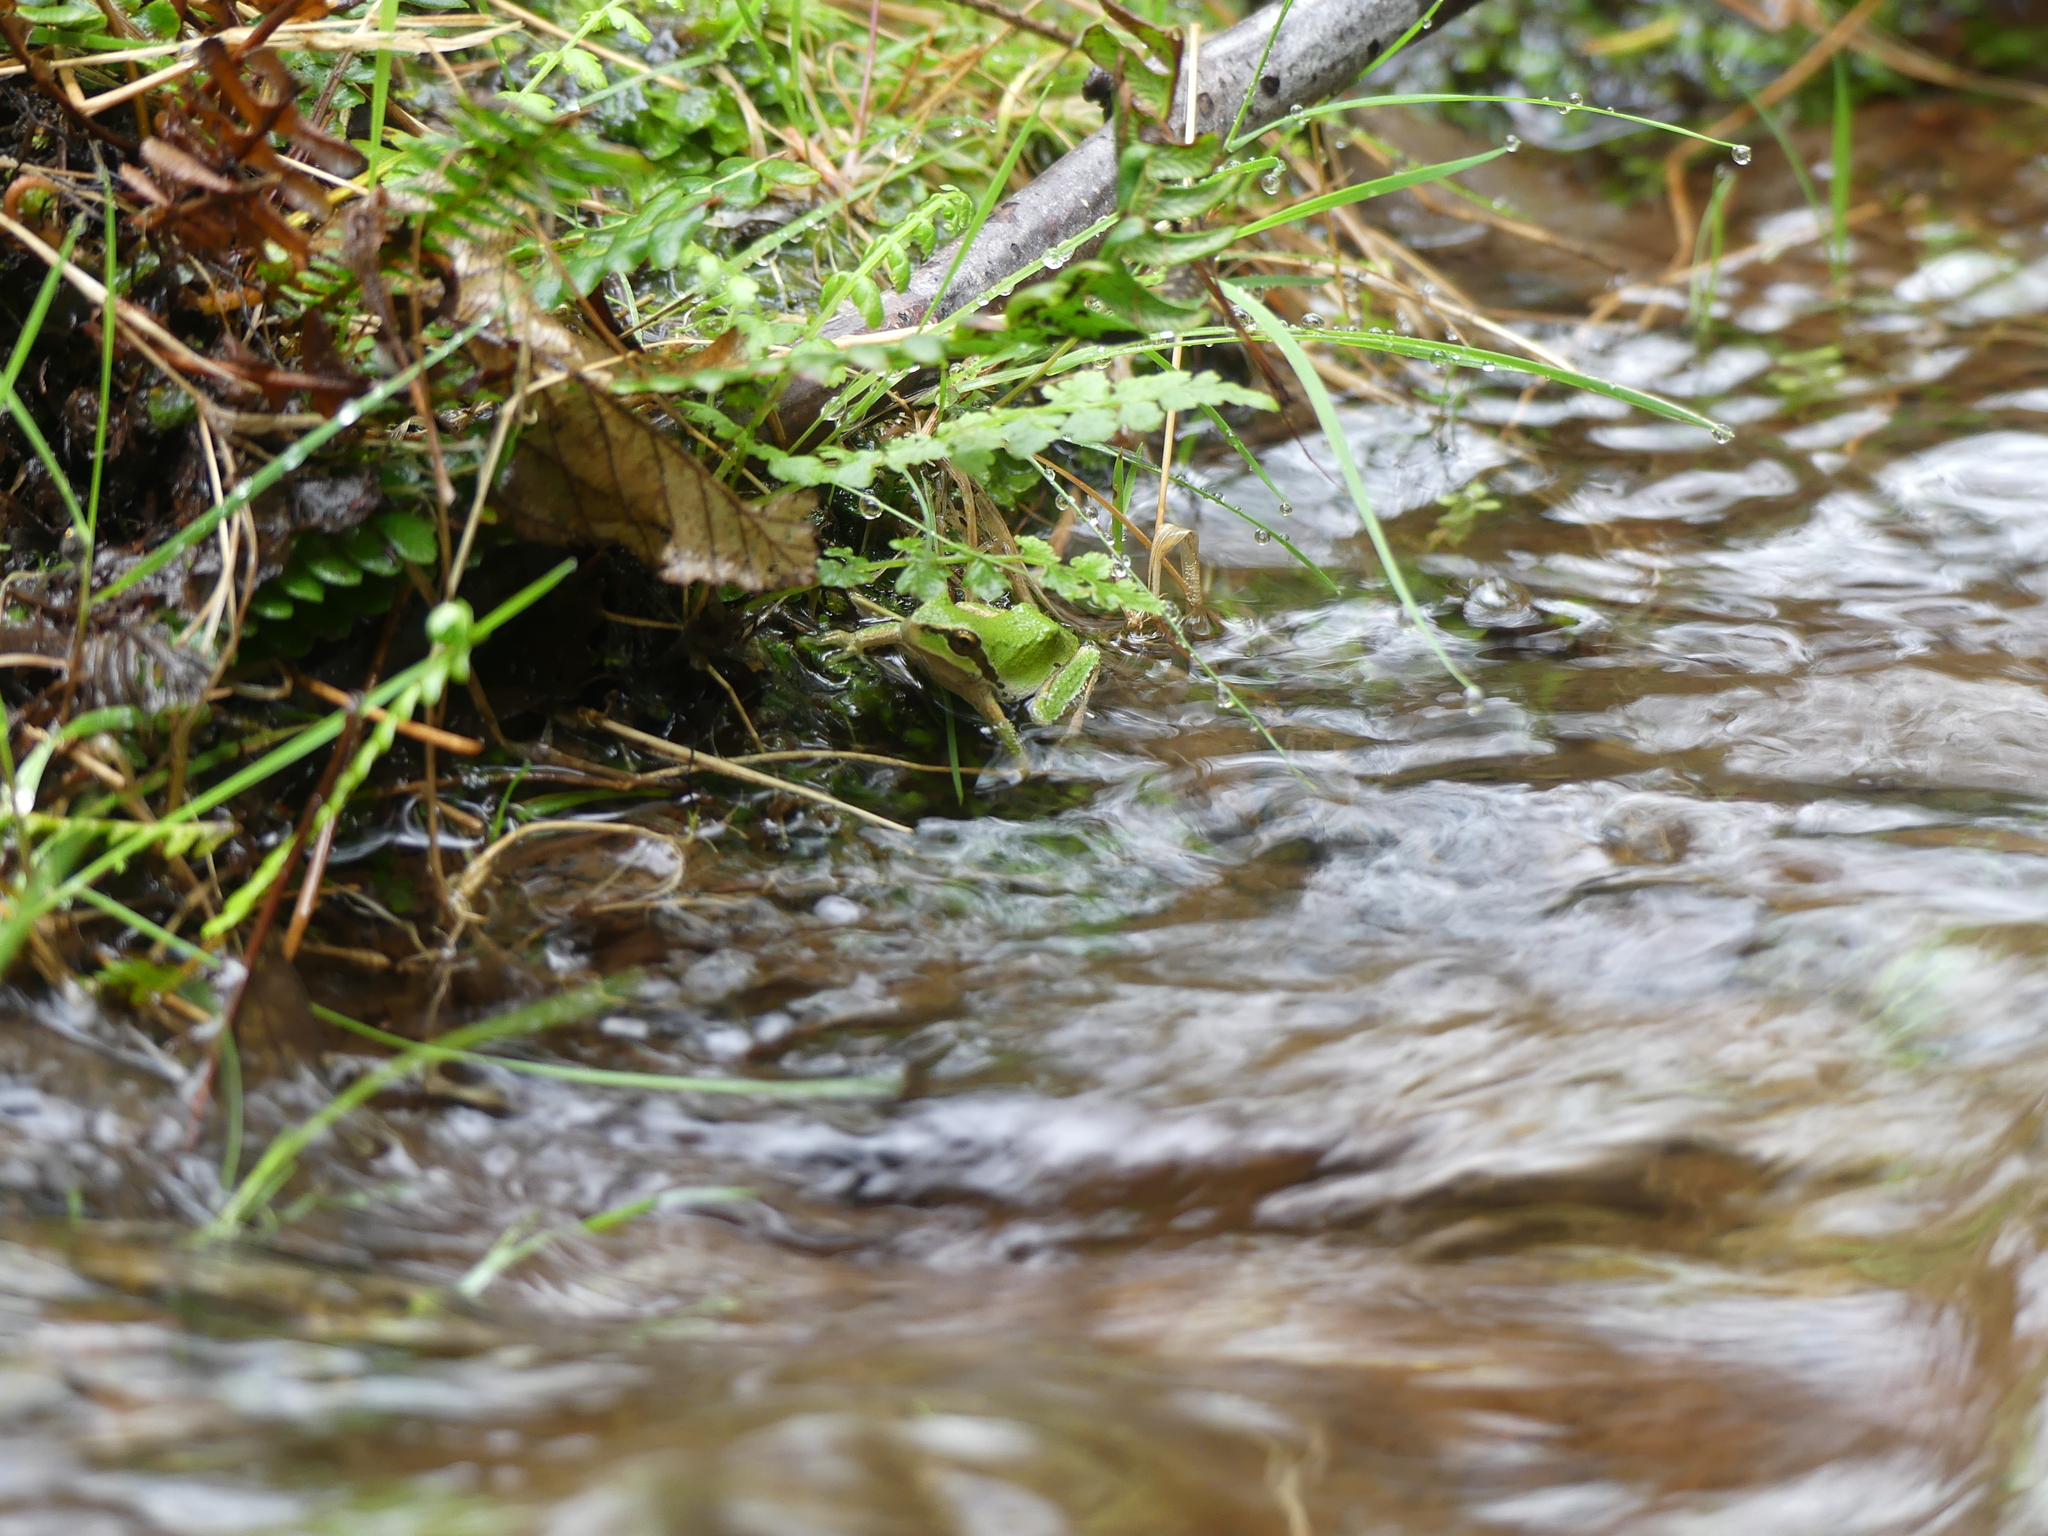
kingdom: Animalia
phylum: Chordata
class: Amphibia
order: Anura
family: Hylidae
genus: Pseudacris
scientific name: Pseudacris regilla
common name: Pacific chorus frog
